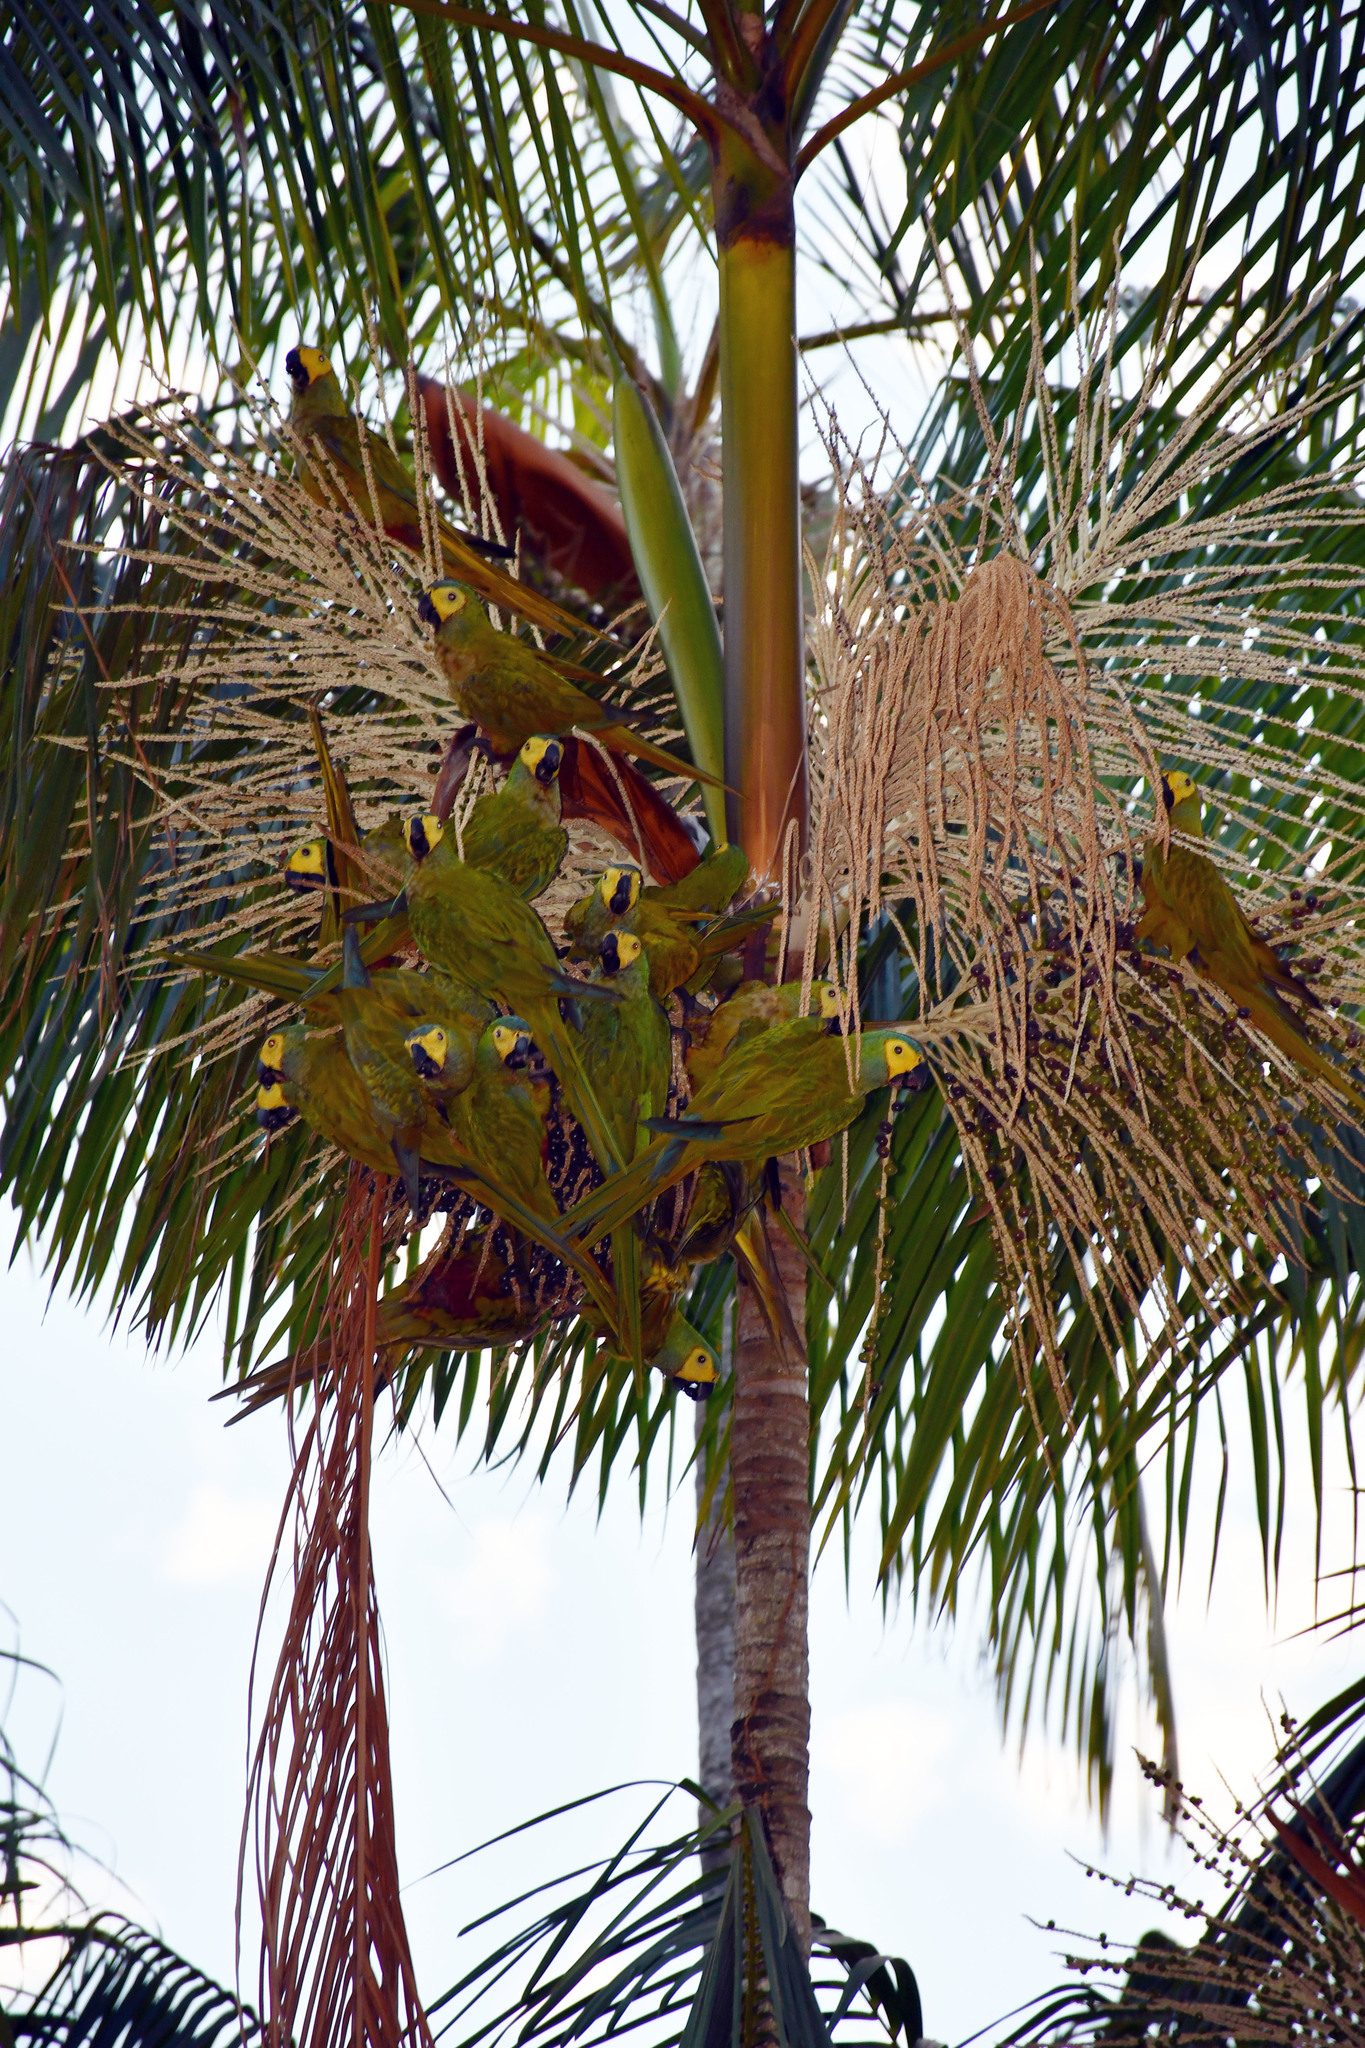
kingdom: Animalia
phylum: Chordata
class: Aves
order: Psittaciformes
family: Psittacidae
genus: Orthopsittaca
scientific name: Orthopsittaca manilata
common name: Red-bellied macaw
